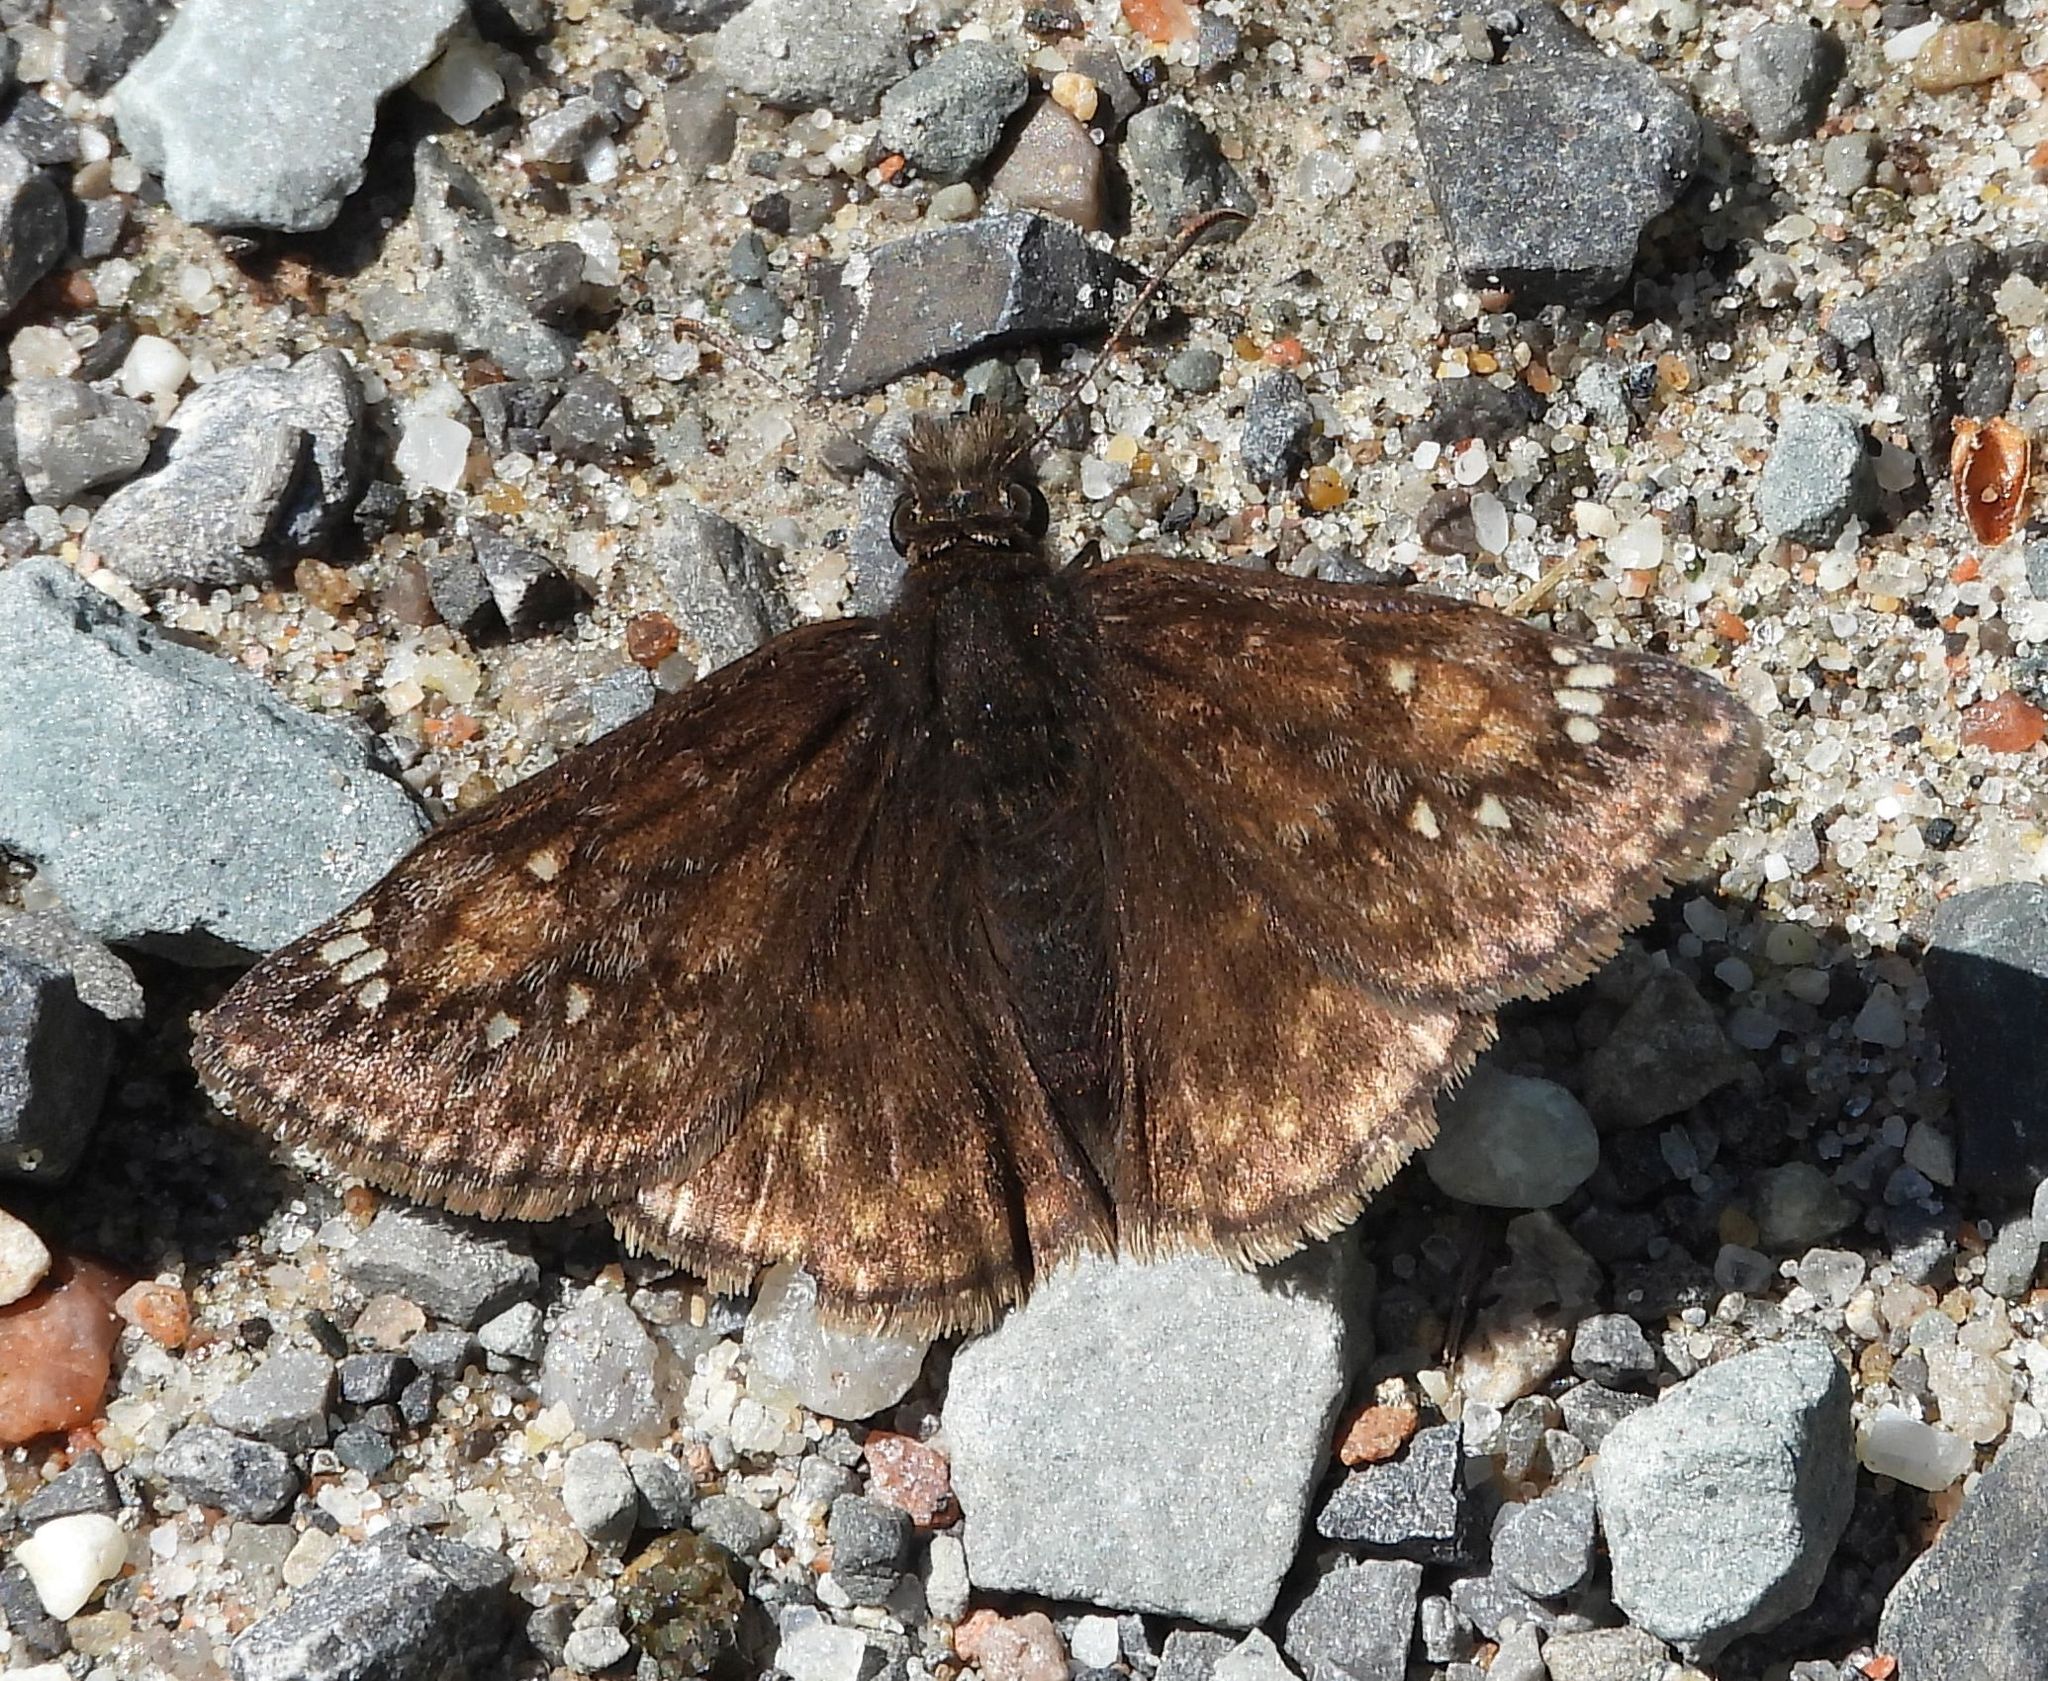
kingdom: Animalia
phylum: Arthropoda
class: Insecta
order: Lepidoptera
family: Hesperiidae
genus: Erynnis
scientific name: Erynnis juvenalis
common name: Juvenal's duskywing
